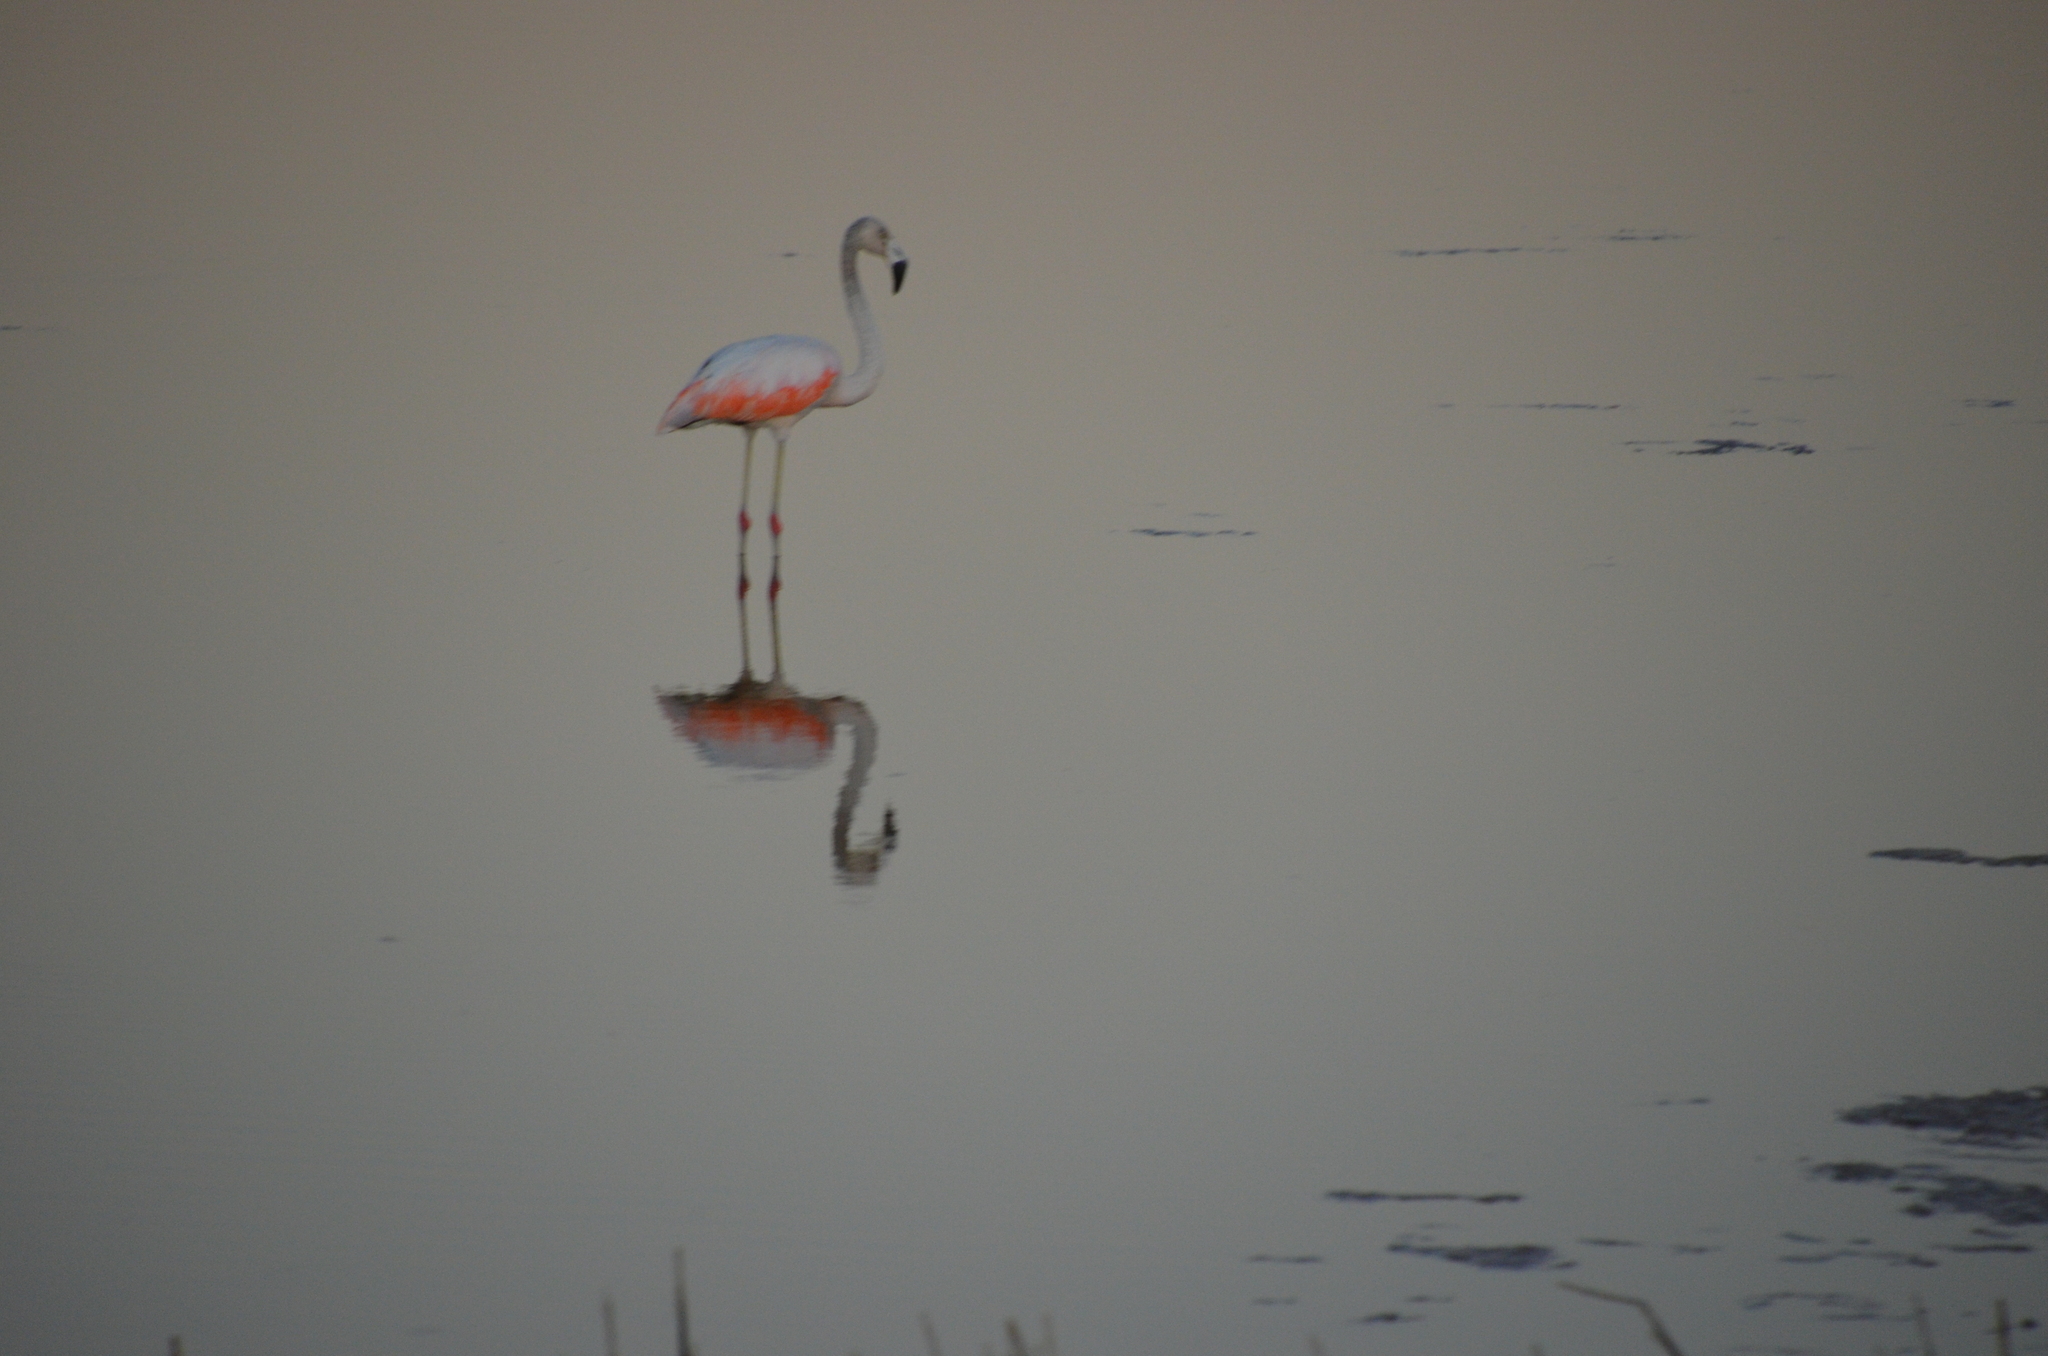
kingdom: Animalia
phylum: Chordata
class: Aves
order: Phoenicopteriformes
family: Phoenicopteridae
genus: Phoenicopterus
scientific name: Phoenicopterus chilensis
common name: Chilean flamingo
